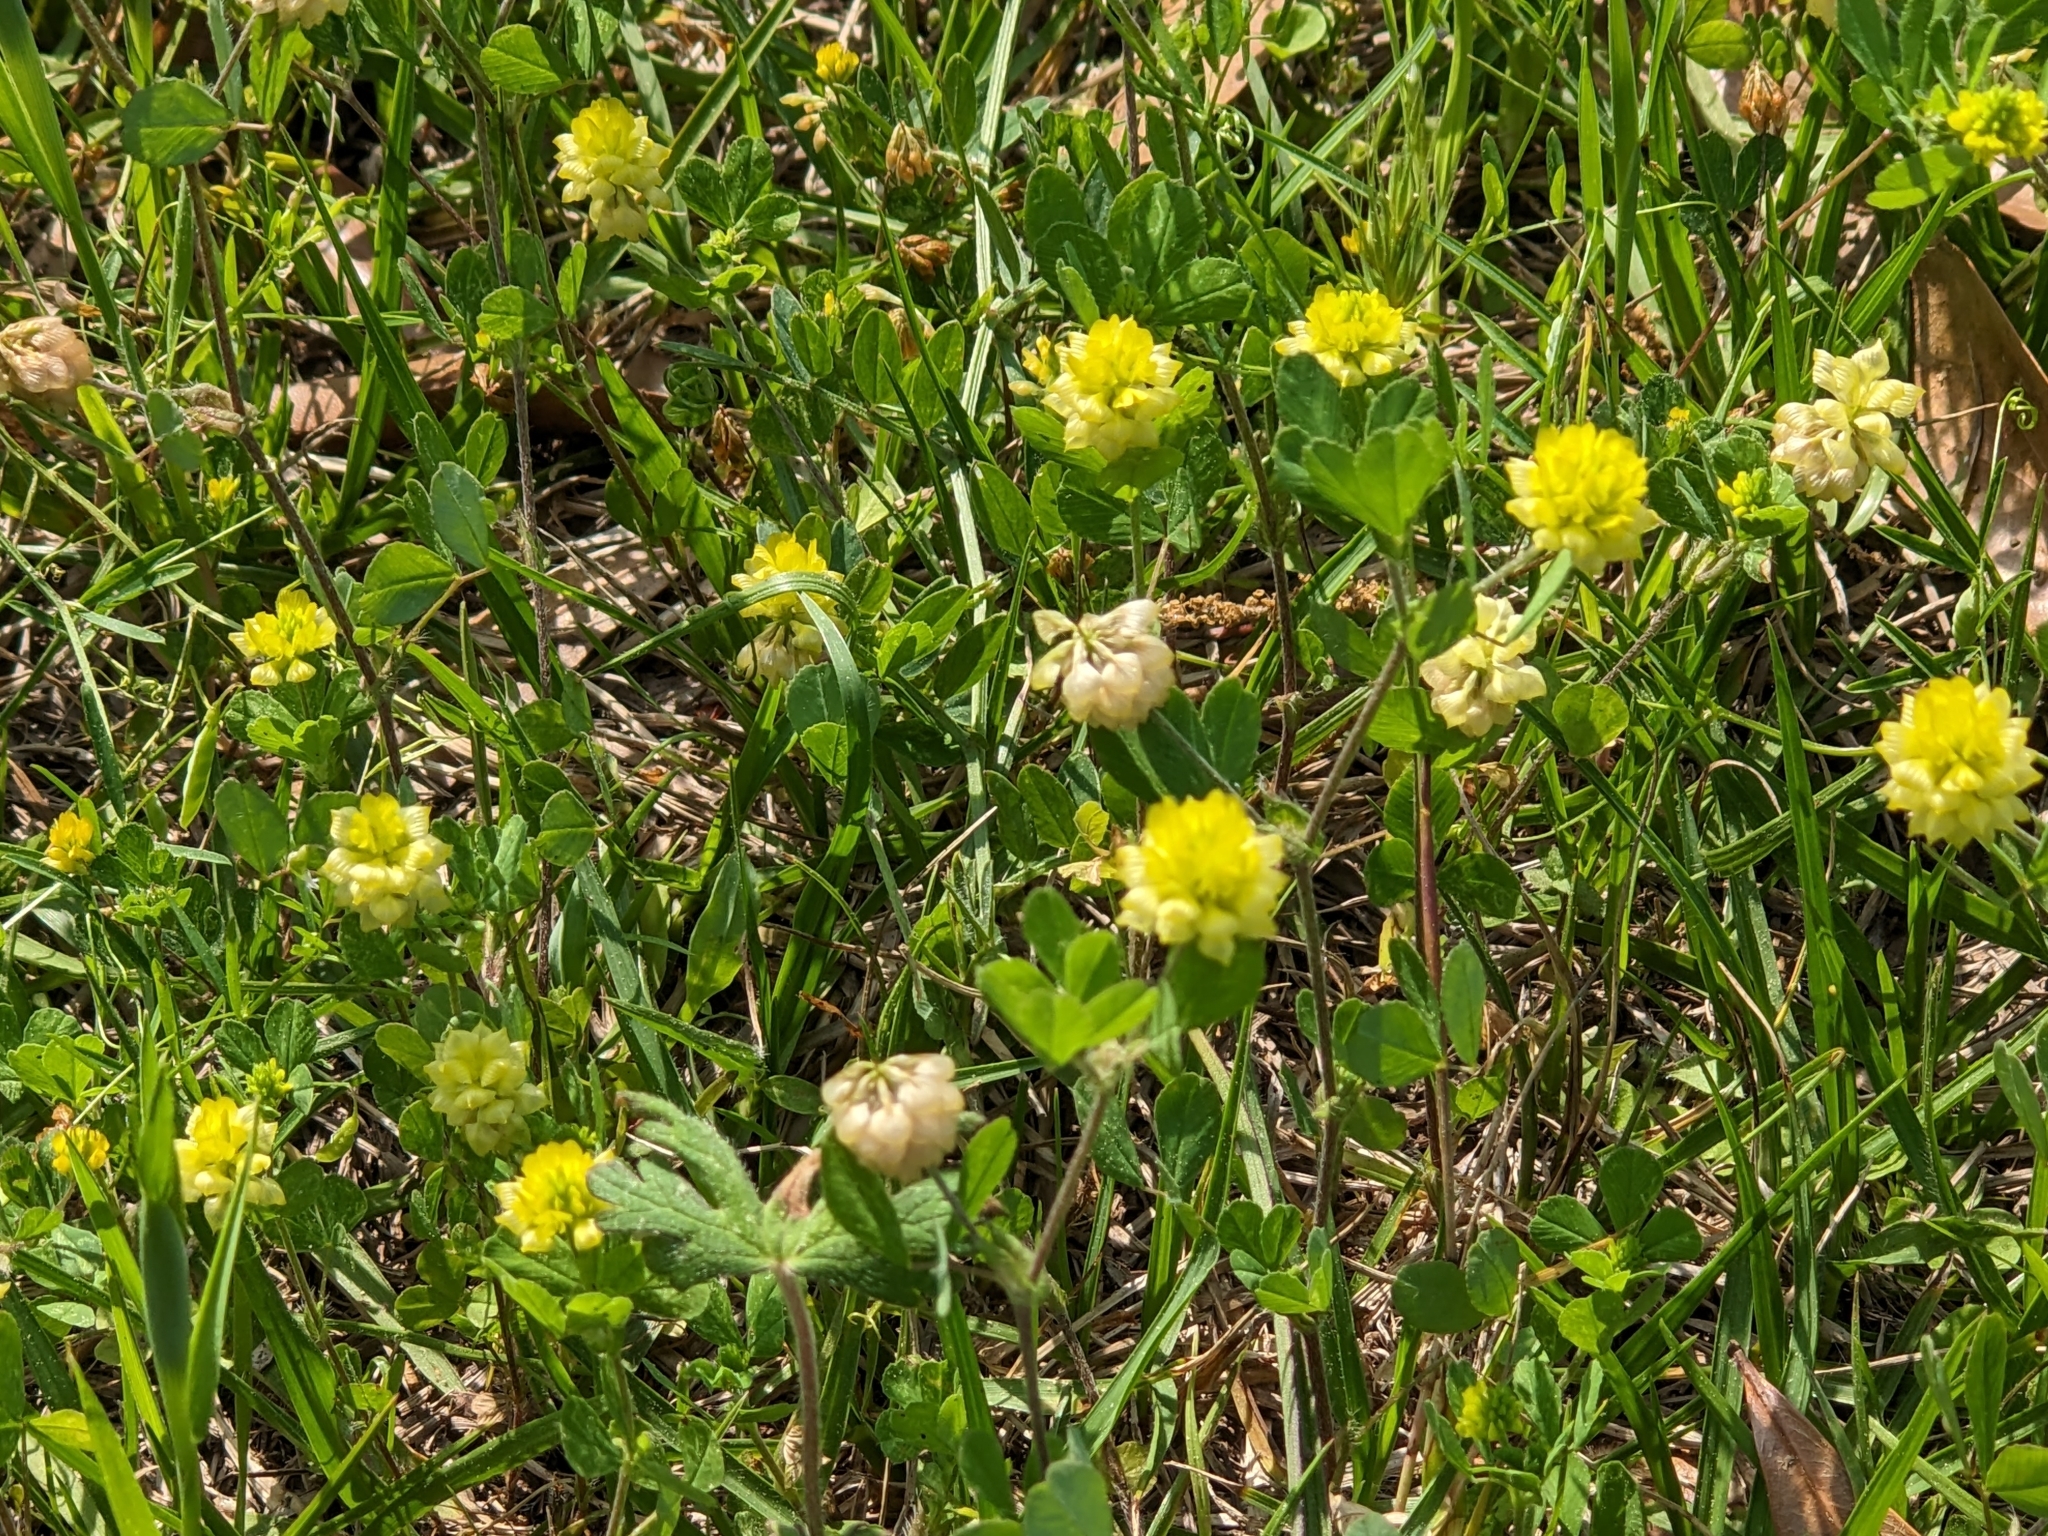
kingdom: Plantae
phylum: Tracheophyta
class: Magnoliopsida
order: Fabales
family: Fabaceae
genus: Trifolium
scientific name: Trifolium campestre
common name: Field clover
